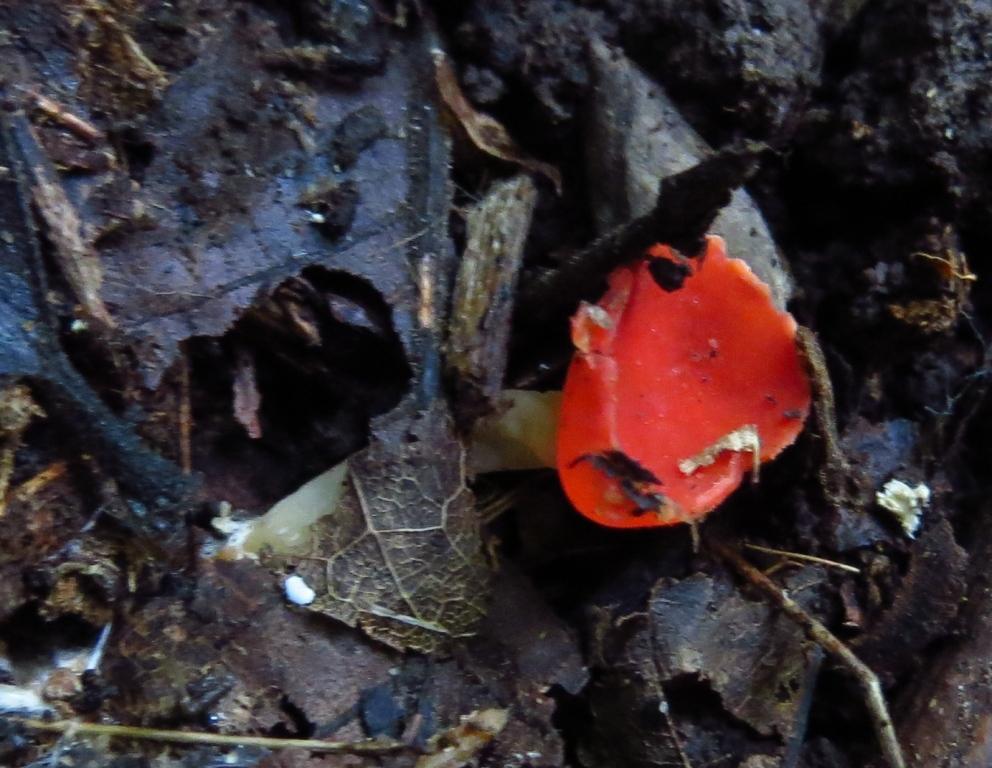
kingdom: Fungi
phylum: Ascomycota
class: Pezizomycetes
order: Pezizales
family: Sarcoscyphaceae
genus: Sarcoscypha
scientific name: Sarcoscypha austriaca
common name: Scarlet elfcup
